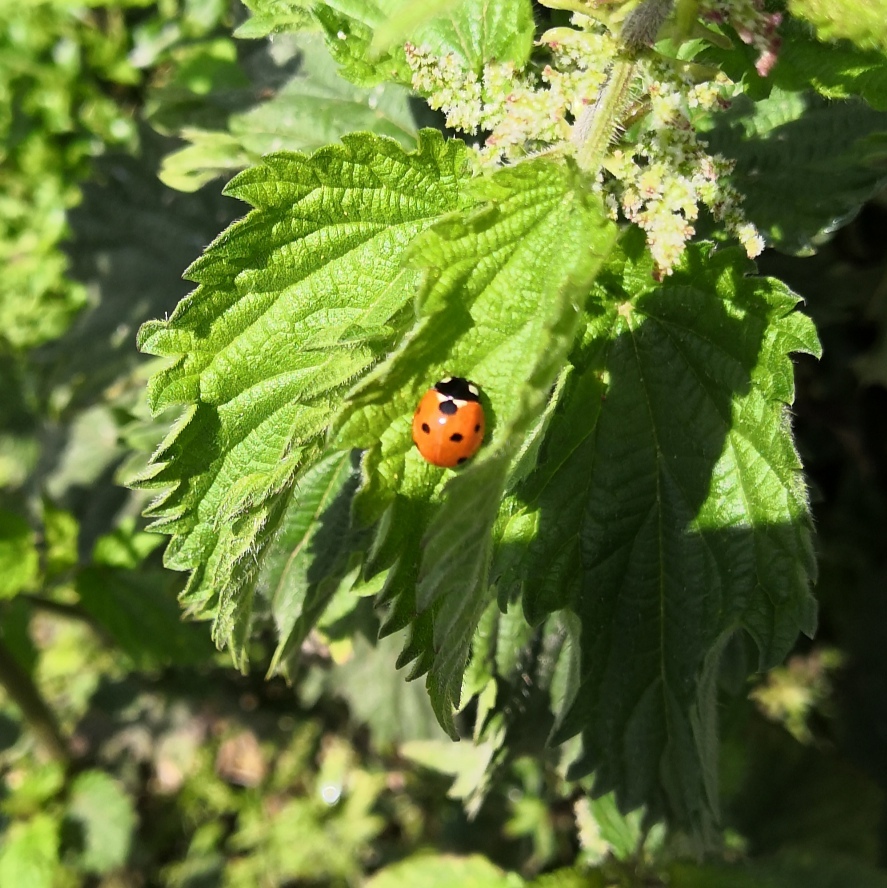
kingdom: Animalia
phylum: Arthropoda
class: Insecta
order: Coleoptera
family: Coccinellidae
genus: Coccinella
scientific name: Coccinella septempunctata
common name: Sevenspotted lady beetle
